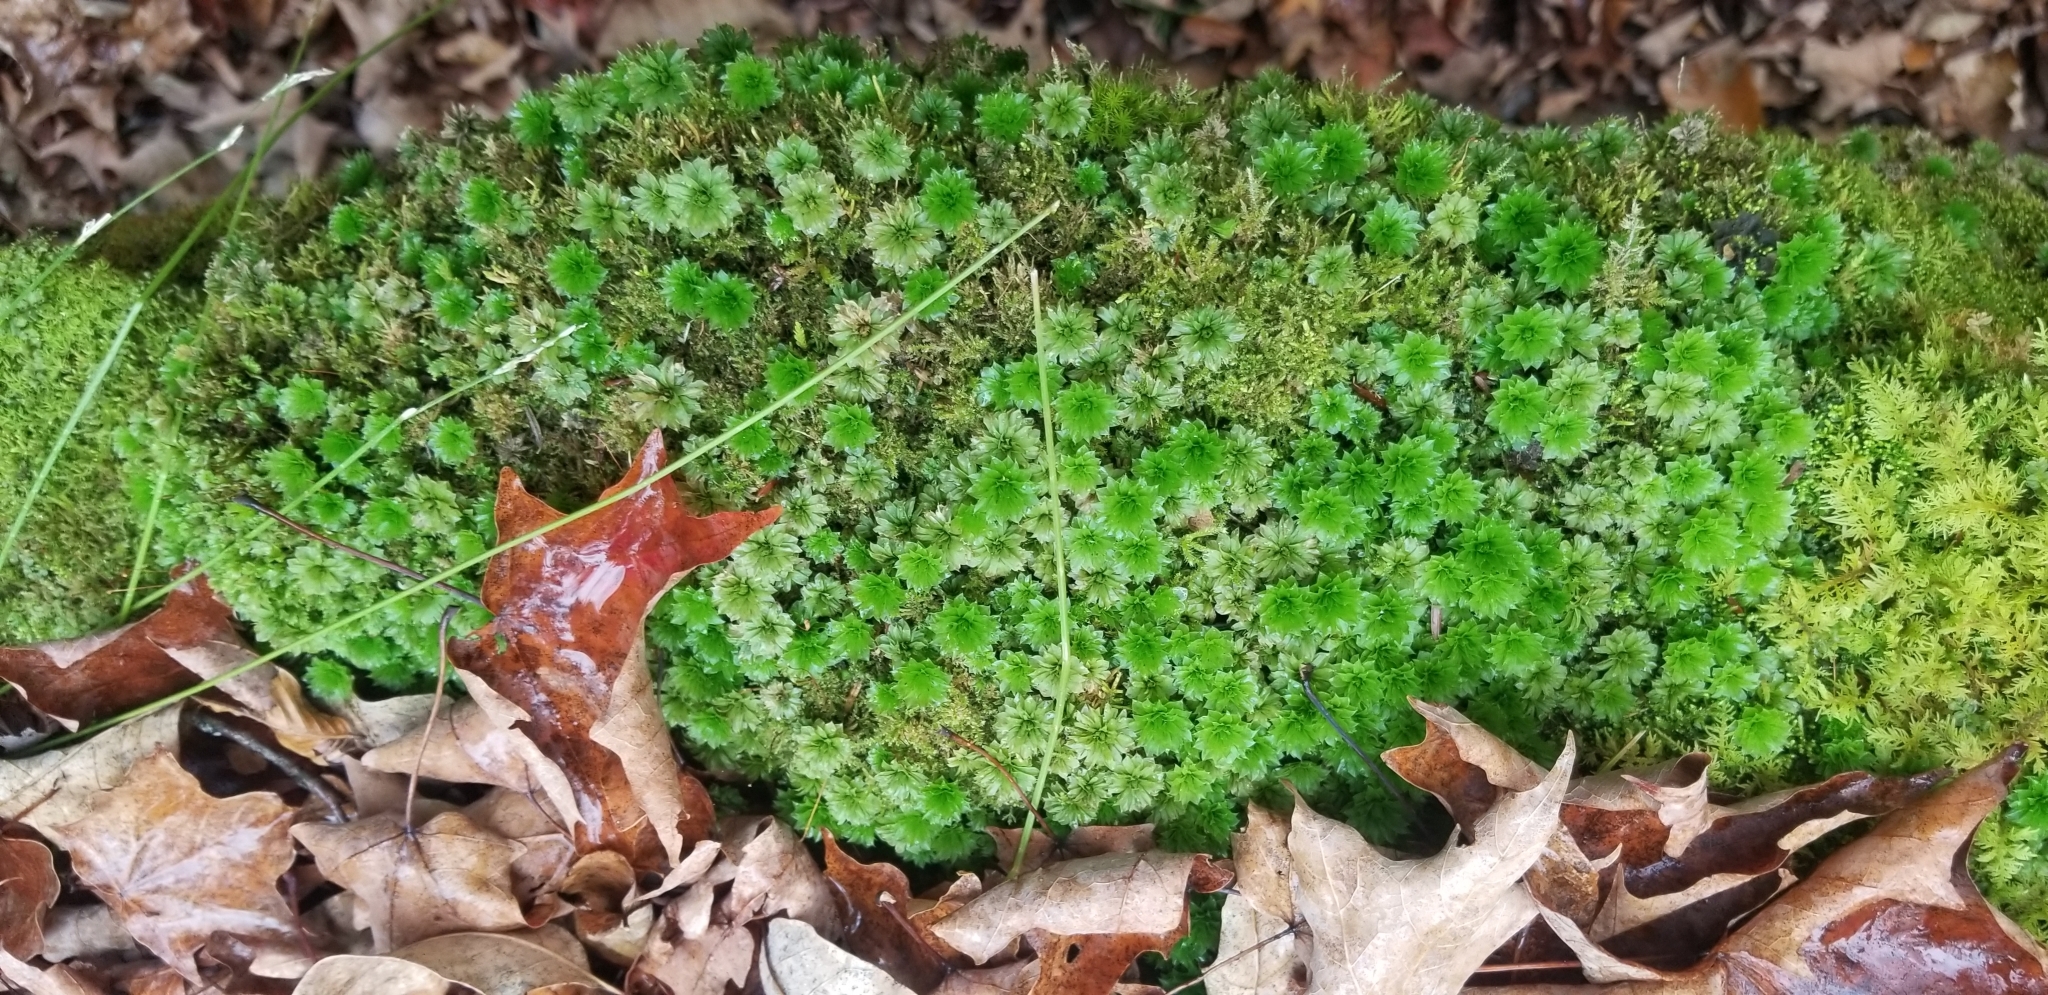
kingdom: Plantae
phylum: Bryophyta
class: Bryopsida
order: Bryales
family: Bryaceae
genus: Rhodobryum
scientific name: Rhodobryum ontariense
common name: Ontario rhodobryum moss
